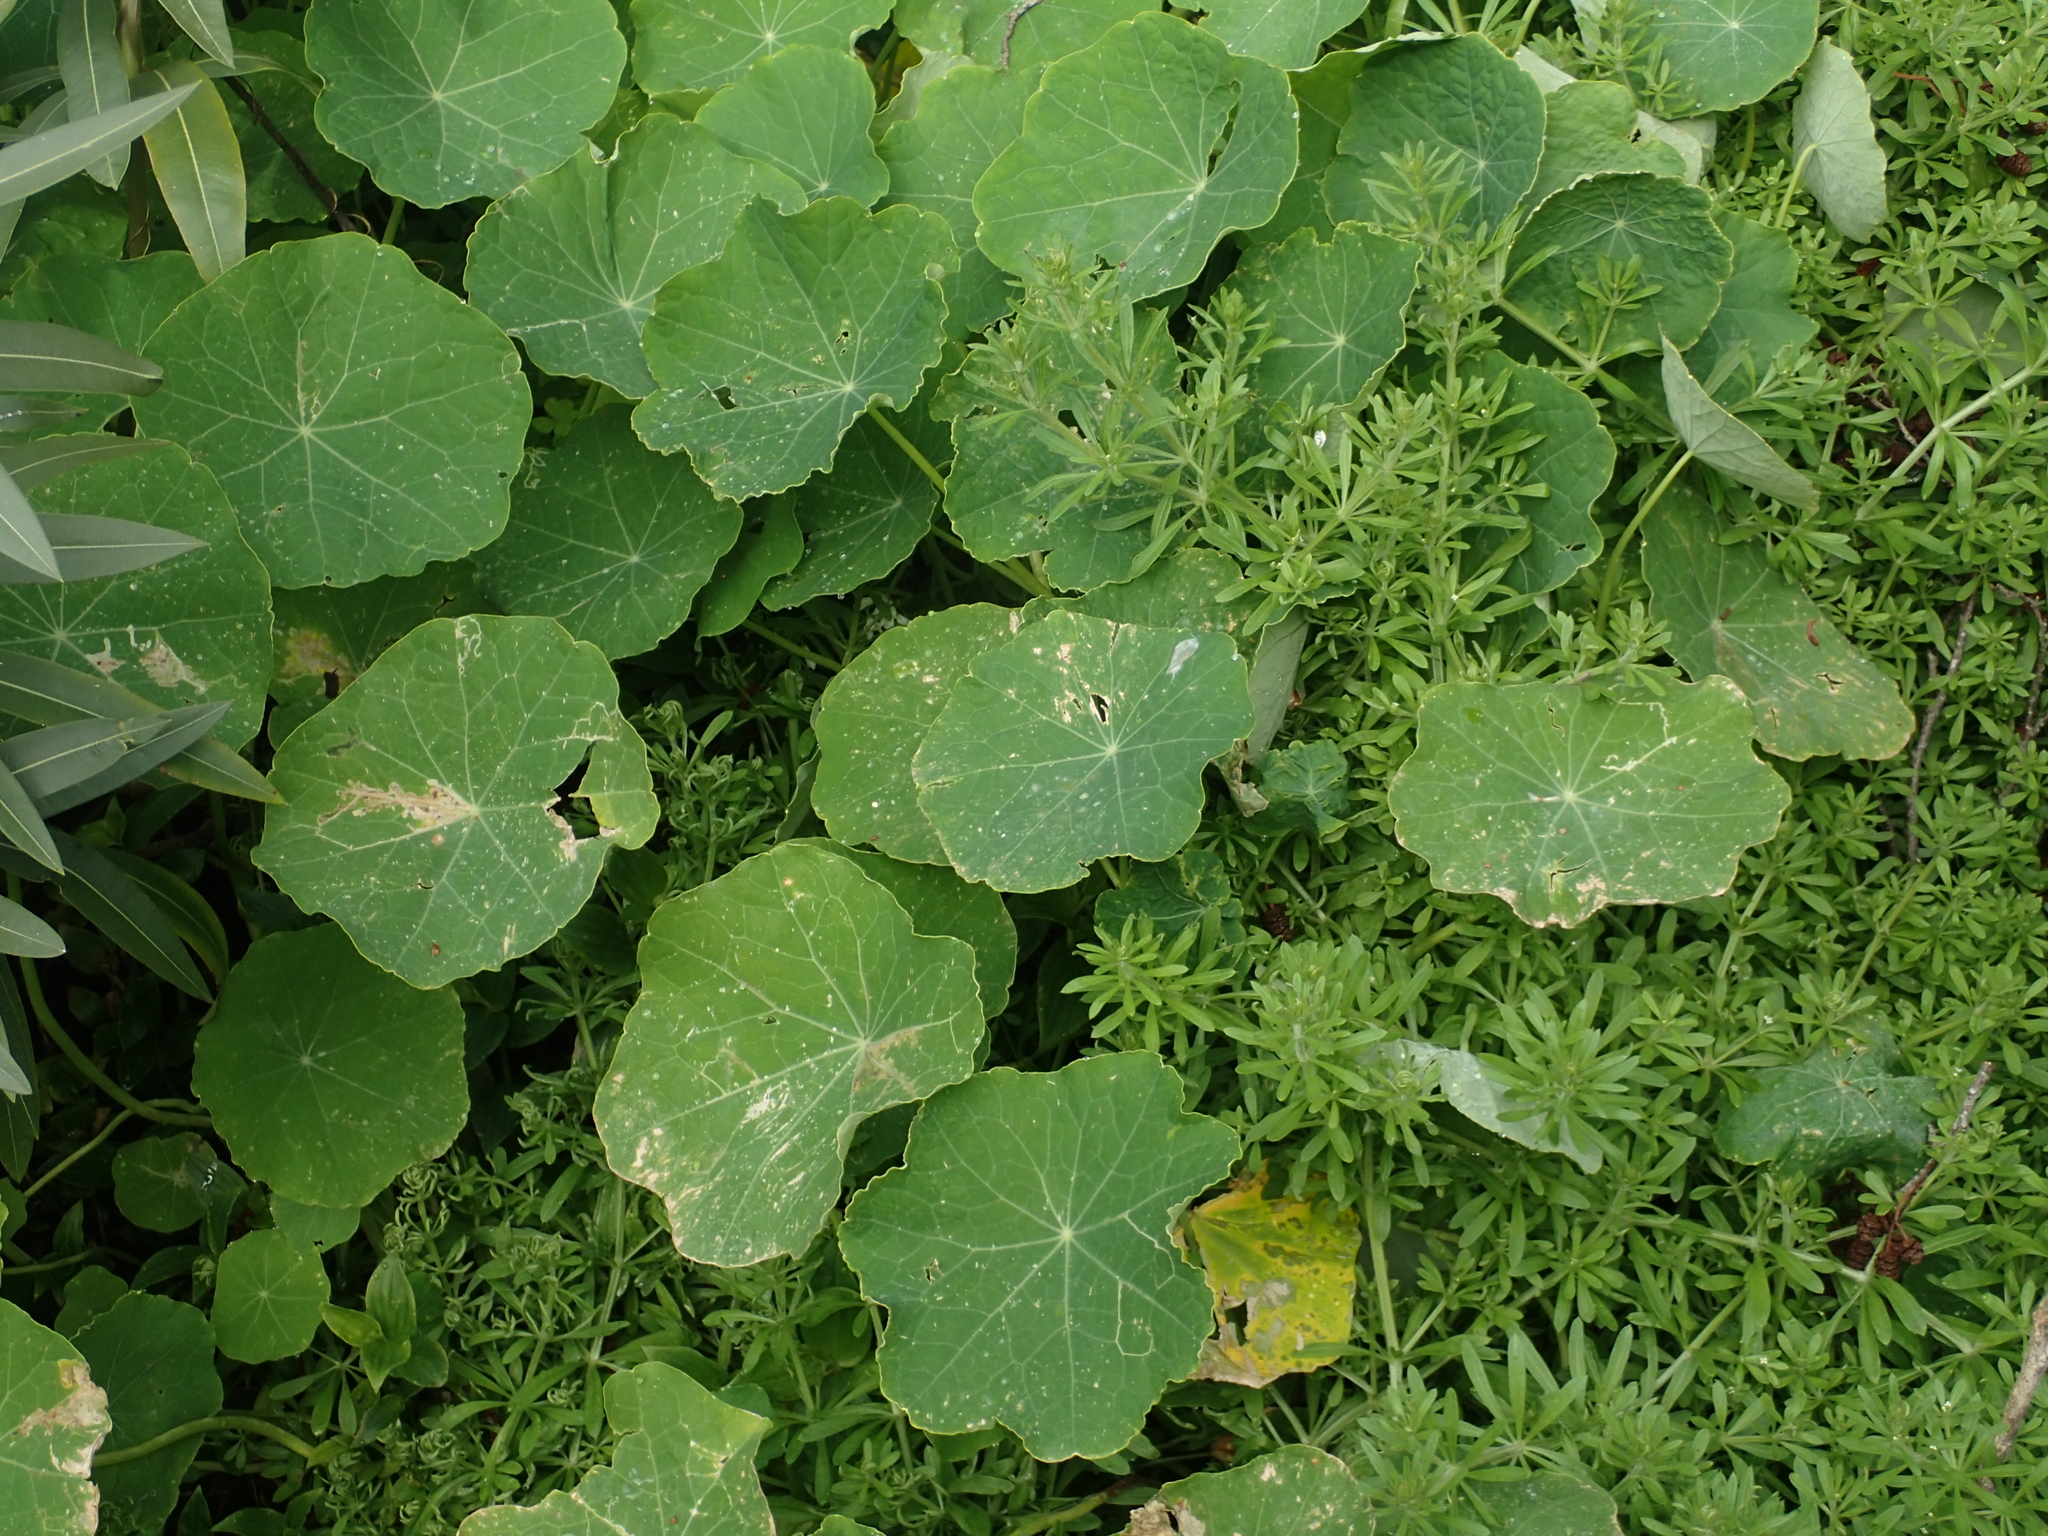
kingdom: Plantae
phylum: Tracheophyta
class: Magnoliopsida
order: Brassicales
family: Tropaeolaceae
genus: Tropaeolum
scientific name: Tropaeolum majus
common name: Nasturtium
